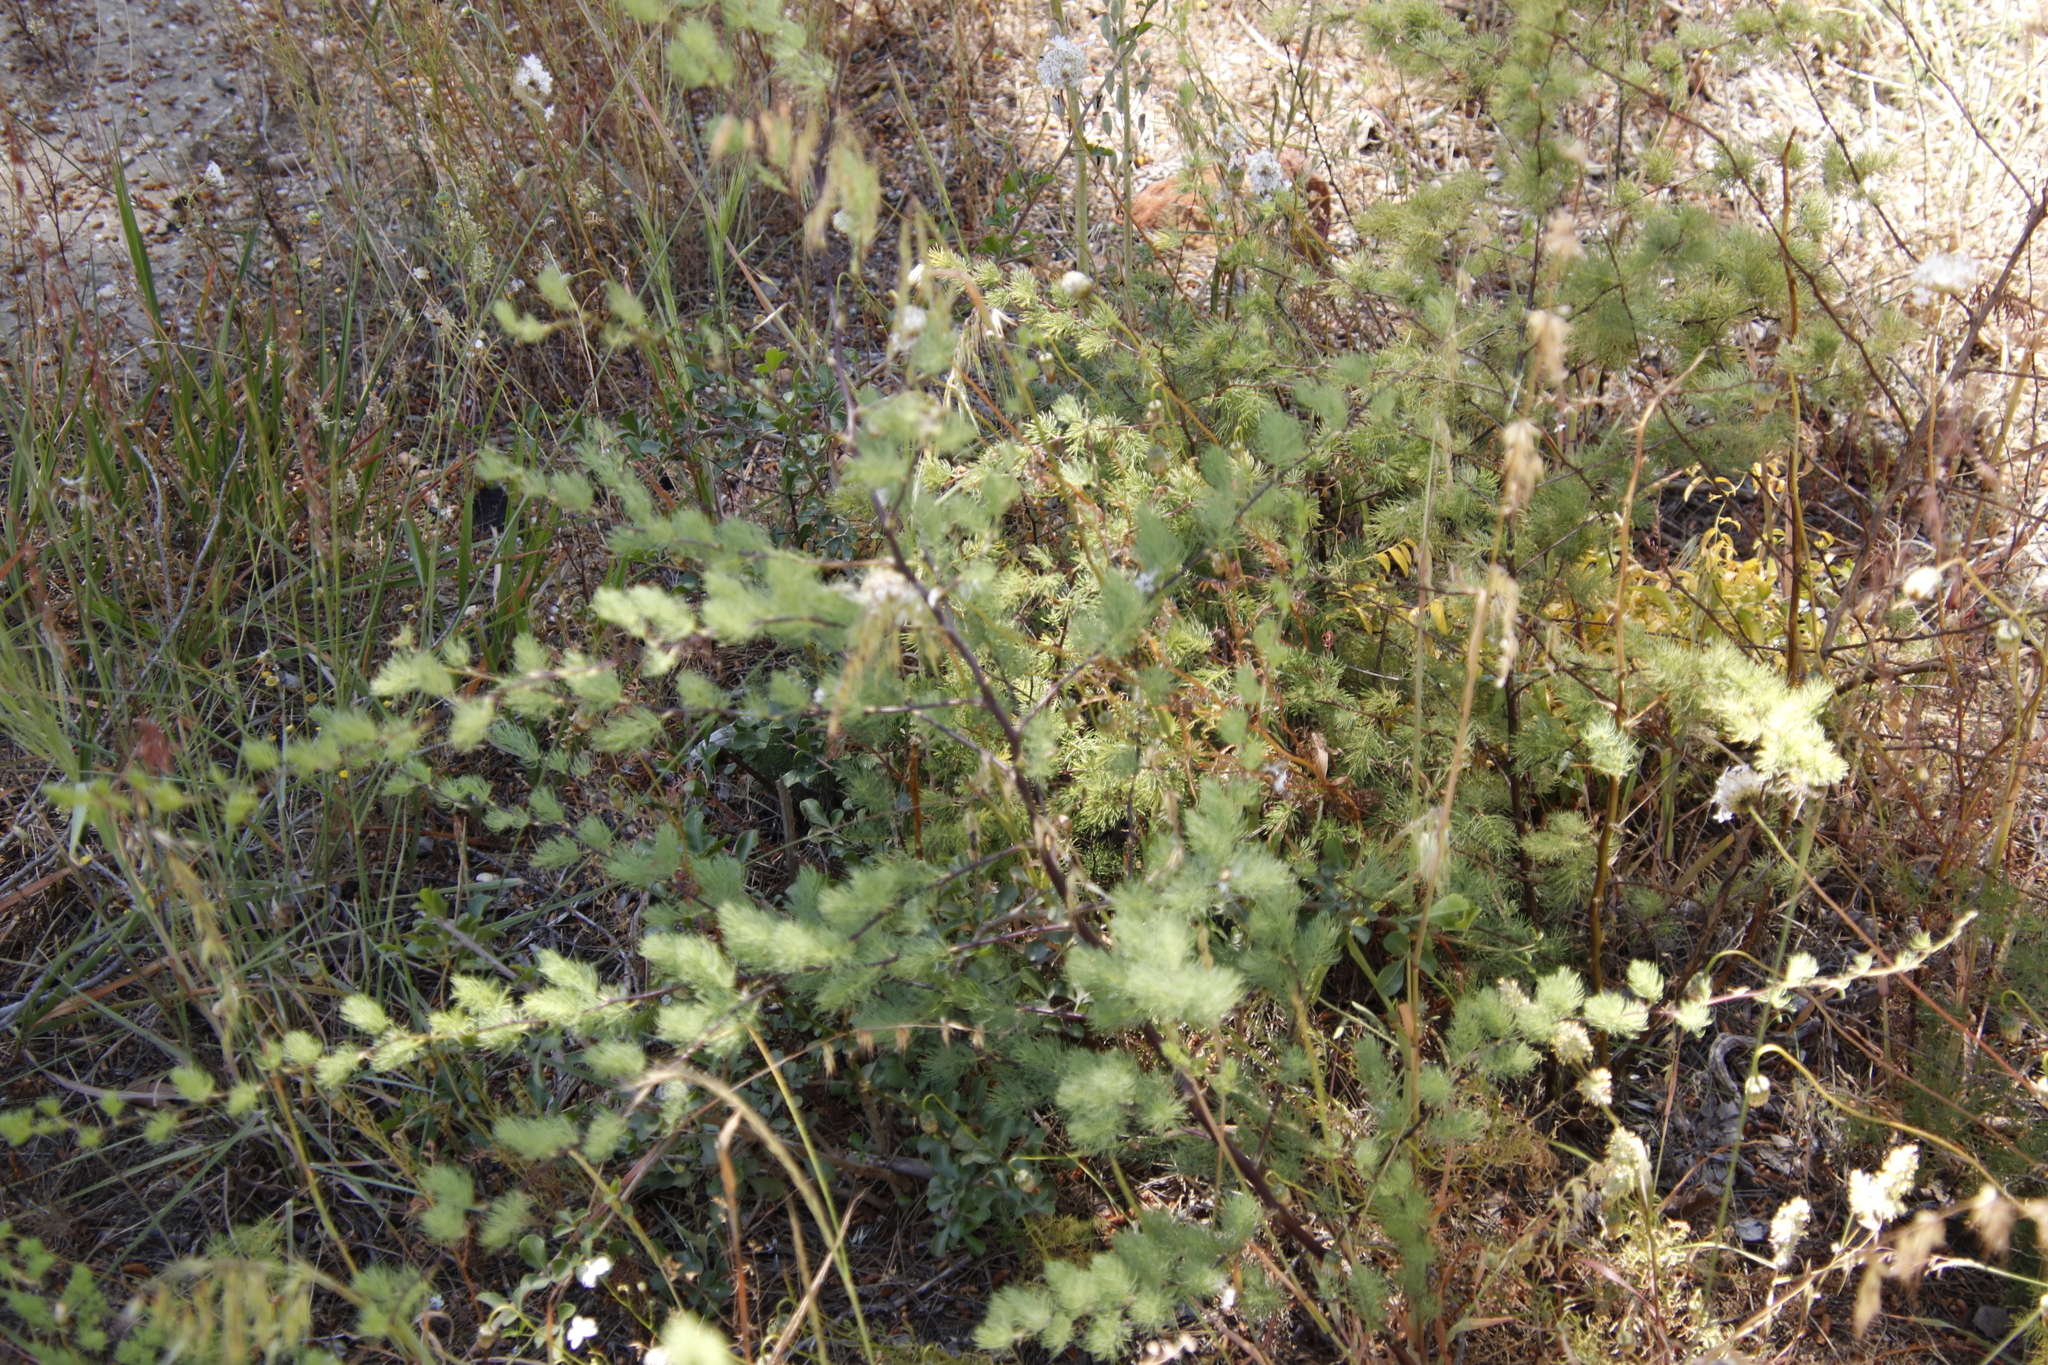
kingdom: Plantae
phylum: Tracheophyta
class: Liliopsida
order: Asparagales
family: Asparagaceae
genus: Asparagus
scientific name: Asparagus rubicundus
